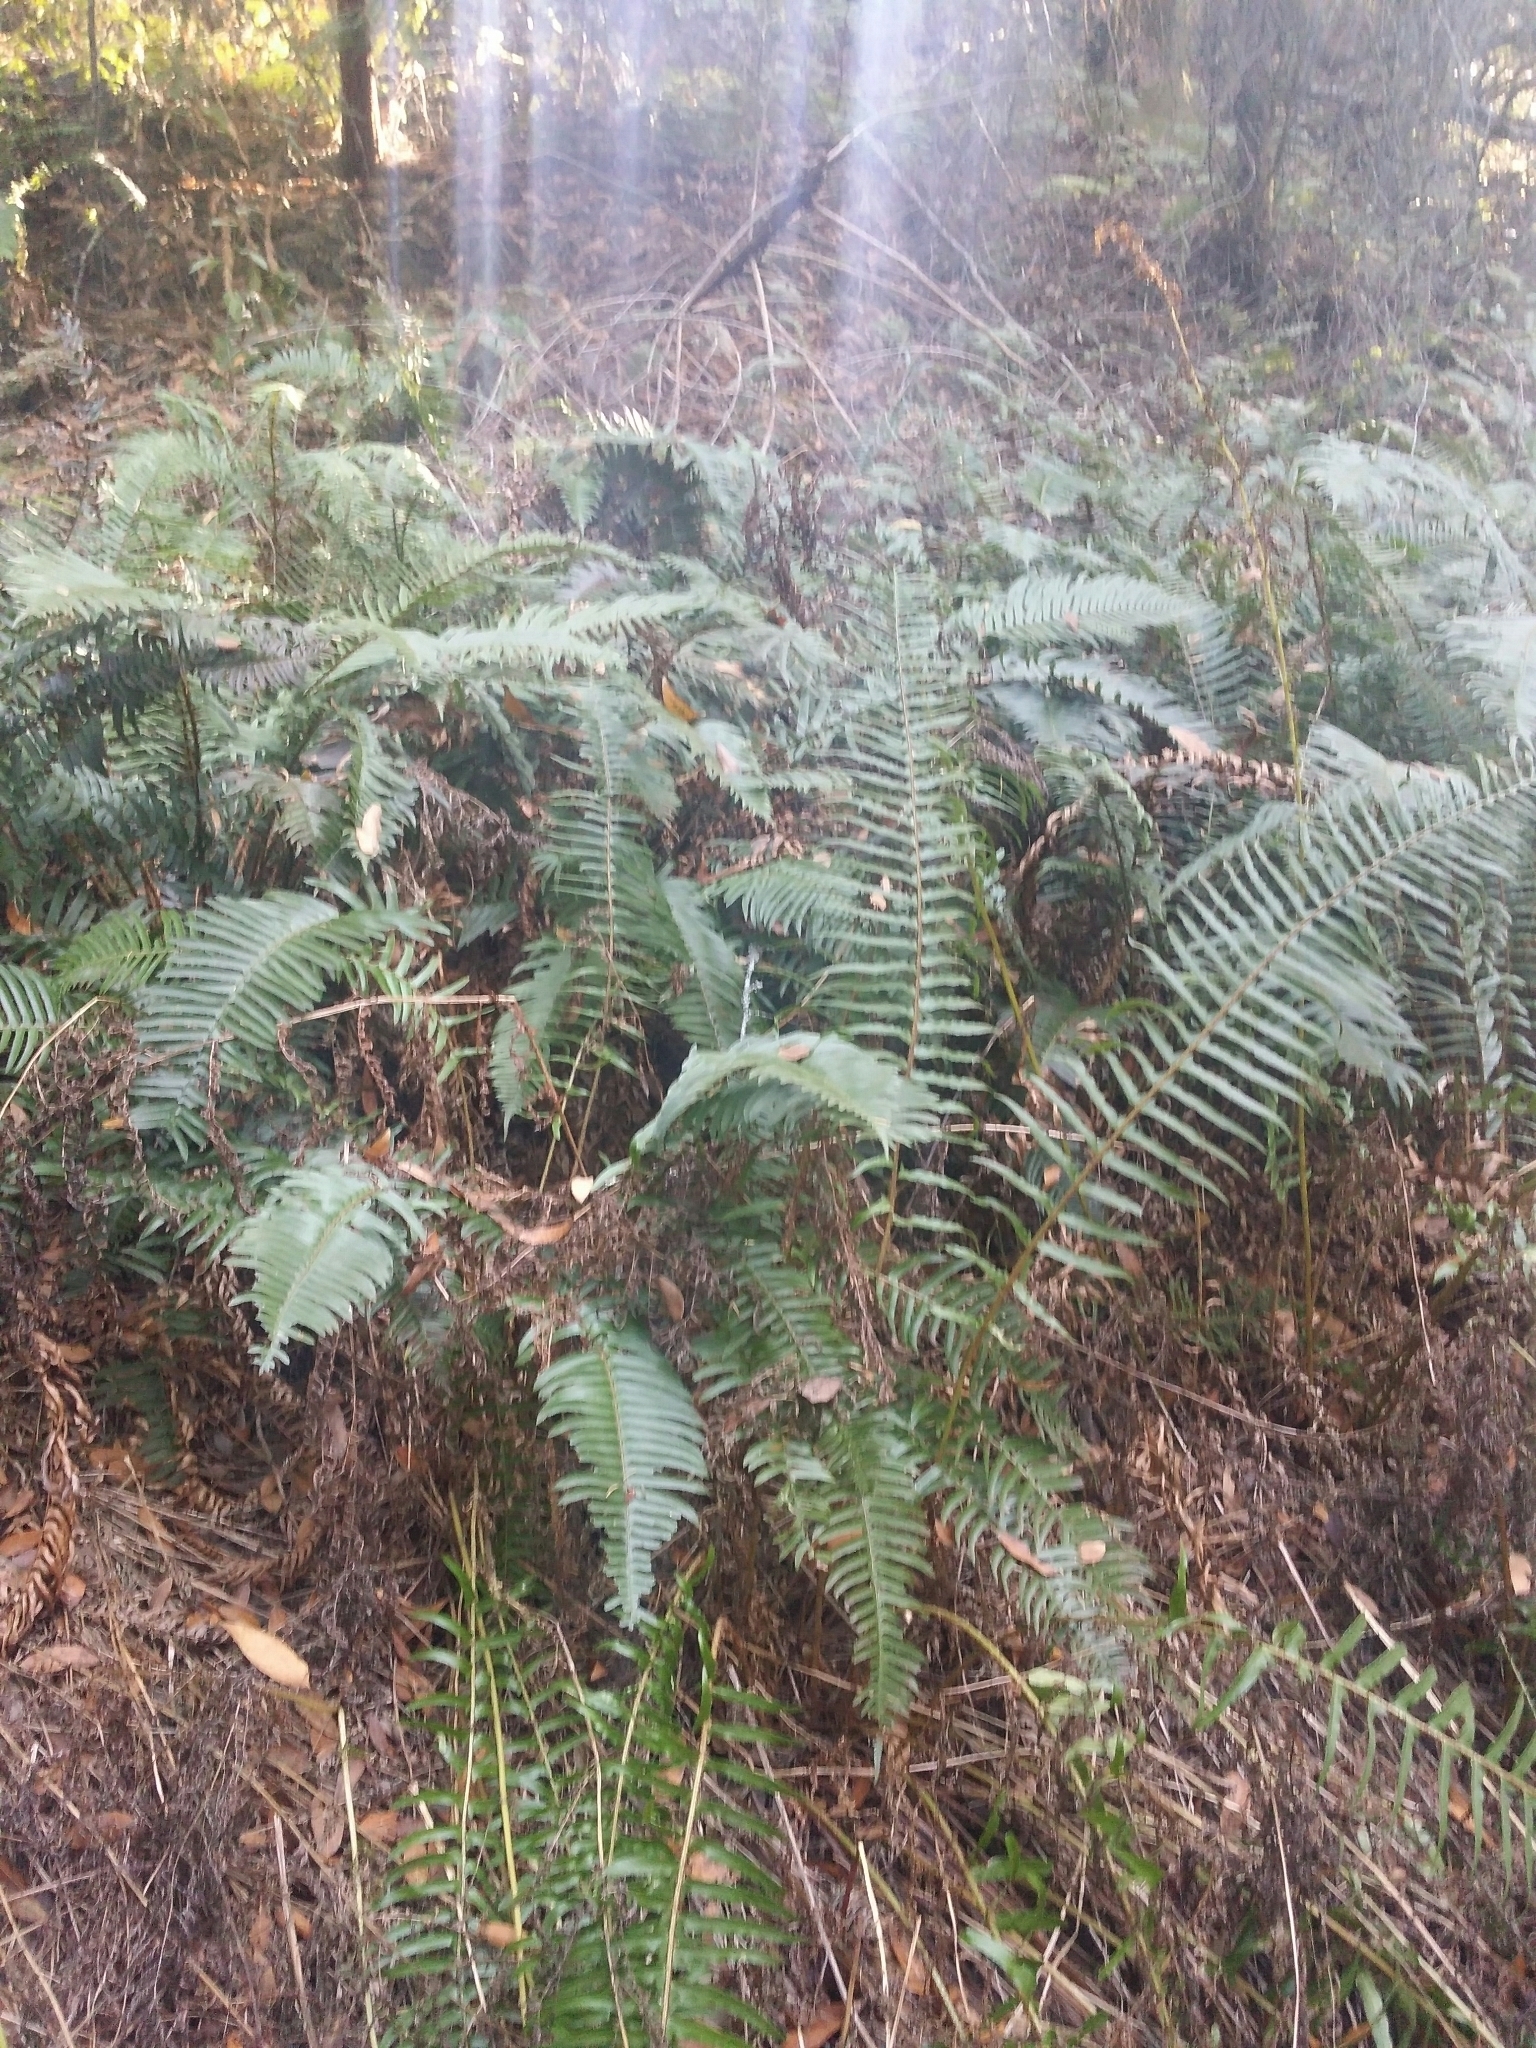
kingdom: Plantae
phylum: Tracheophyta
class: Polypodiopsida
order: Polypodiales
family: Dryopteridaceae
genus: Polystichum
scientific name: Polystichum munitum
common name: Western sword-fern
